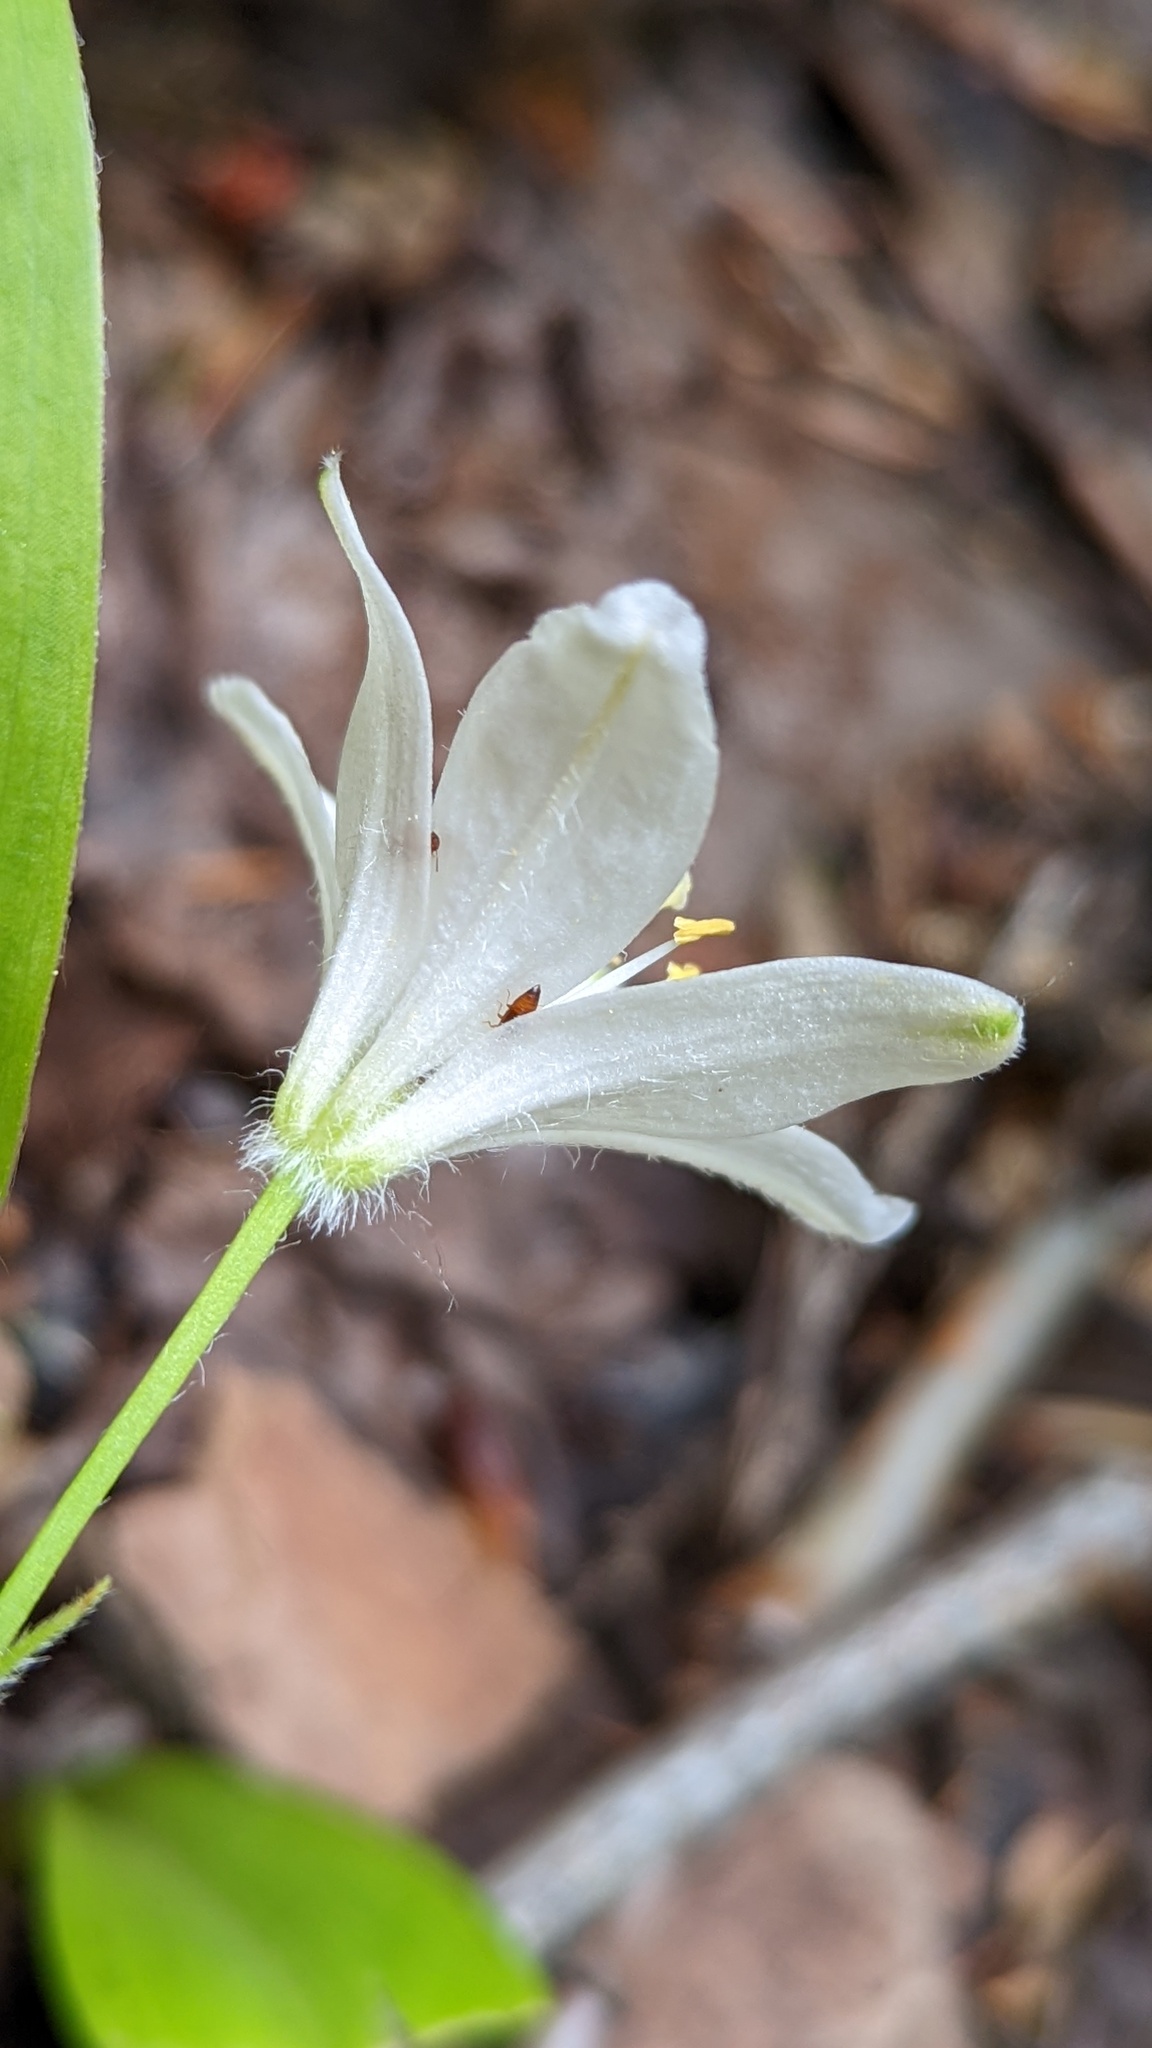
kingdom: Plantae
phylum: Tracheophyta
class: Liliopsida
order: Liliales
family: Liliaceae
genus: Clintonia
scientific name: Clintonia uniflora
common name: Queen's cup
